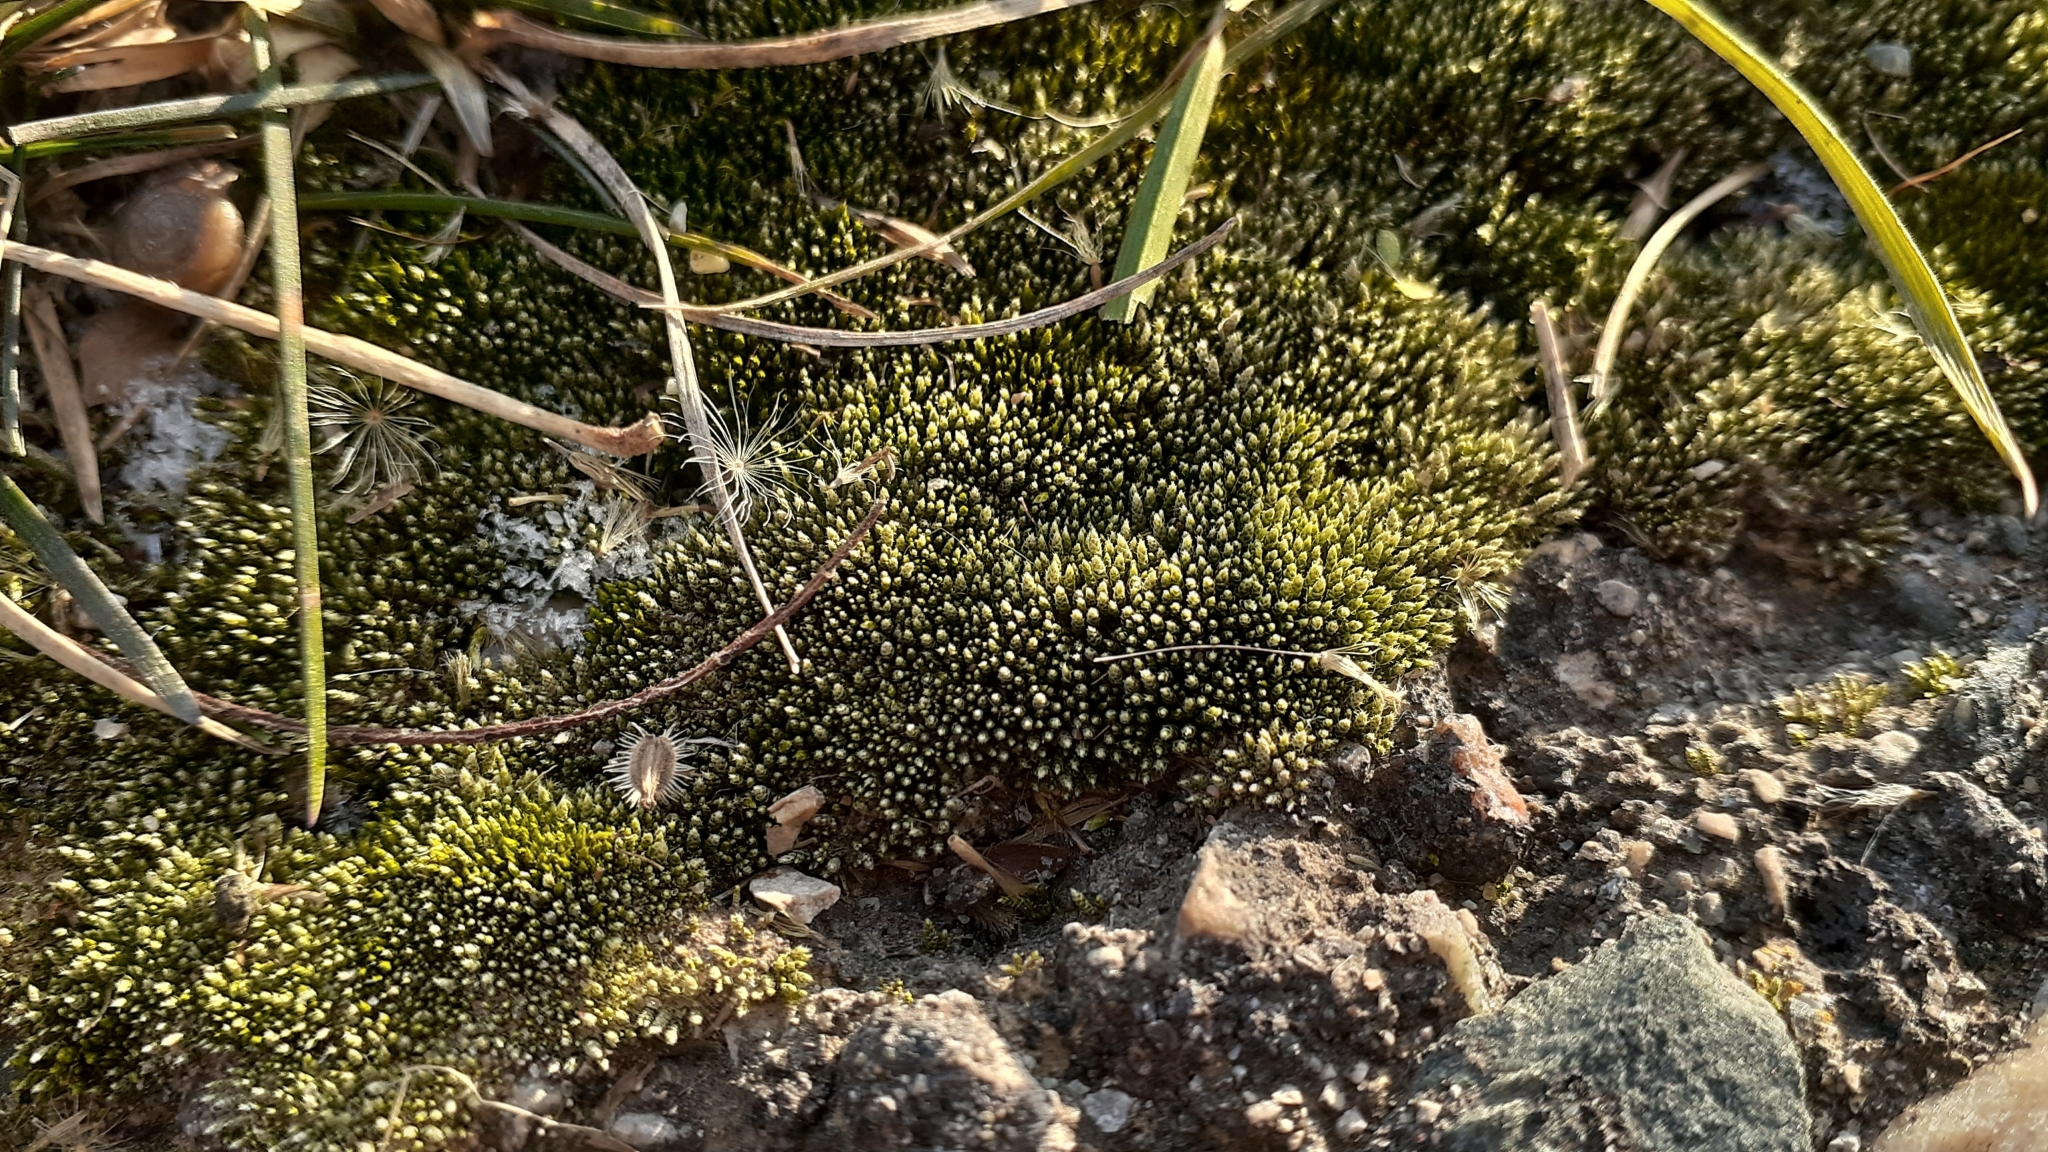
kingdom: Plantae
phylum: Bryophyta
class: Bryopsida
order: Bryales
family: Bryaceae
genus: Bryum
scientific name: Bryum argenteum
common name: Silver-moss
